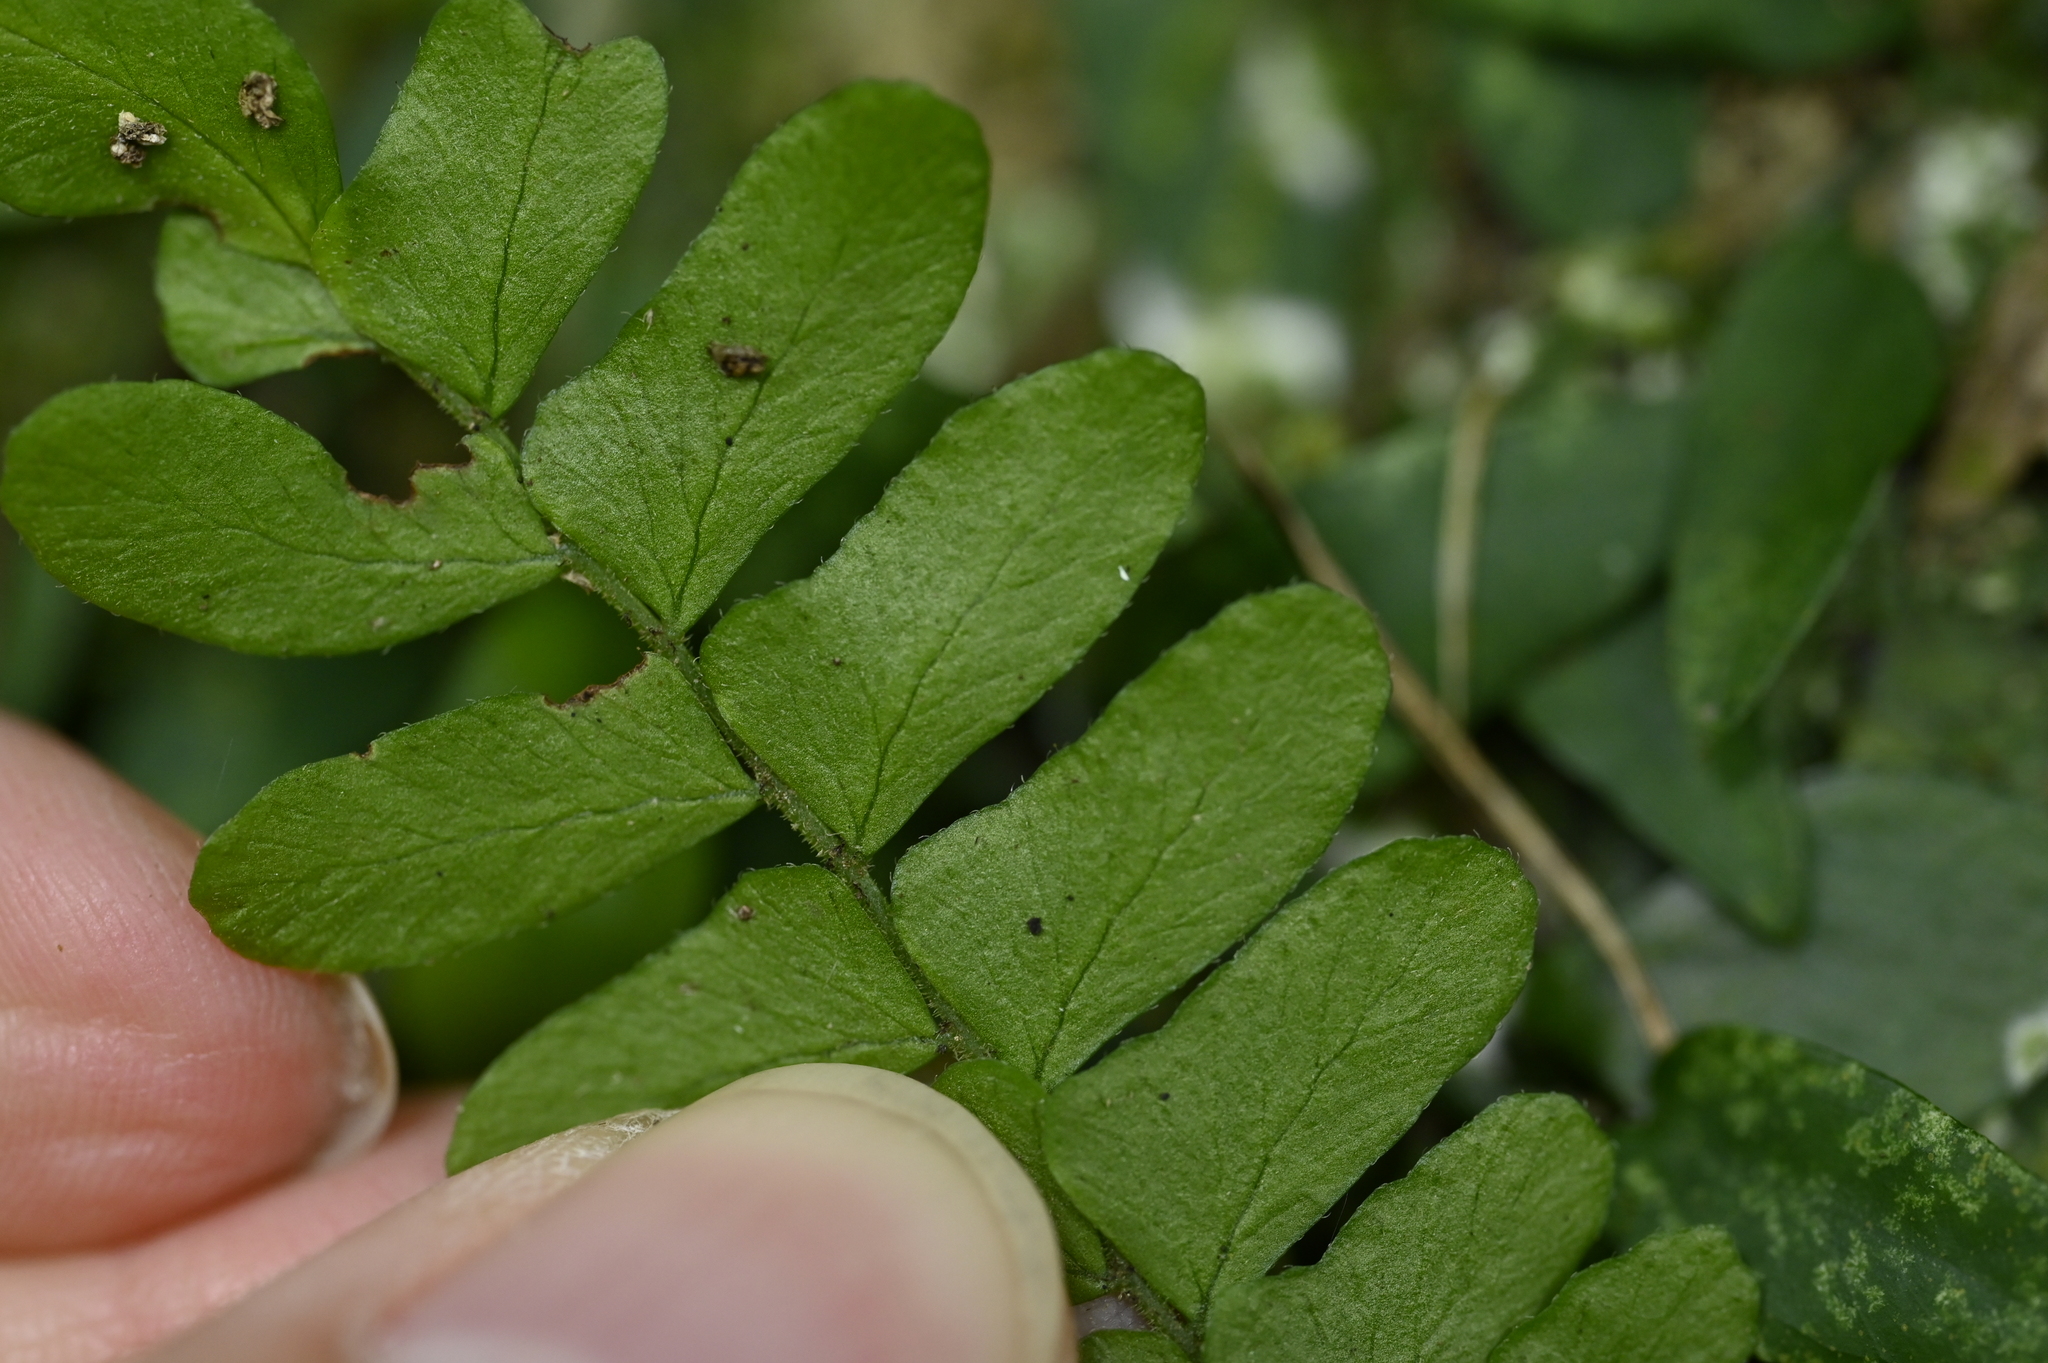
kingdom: Plantae
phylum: Tracheophyta
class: Polypodiopsida
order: Polypodiales
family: Tectariaceae
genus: Arthropteris
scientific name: Arthropteris palisotii
